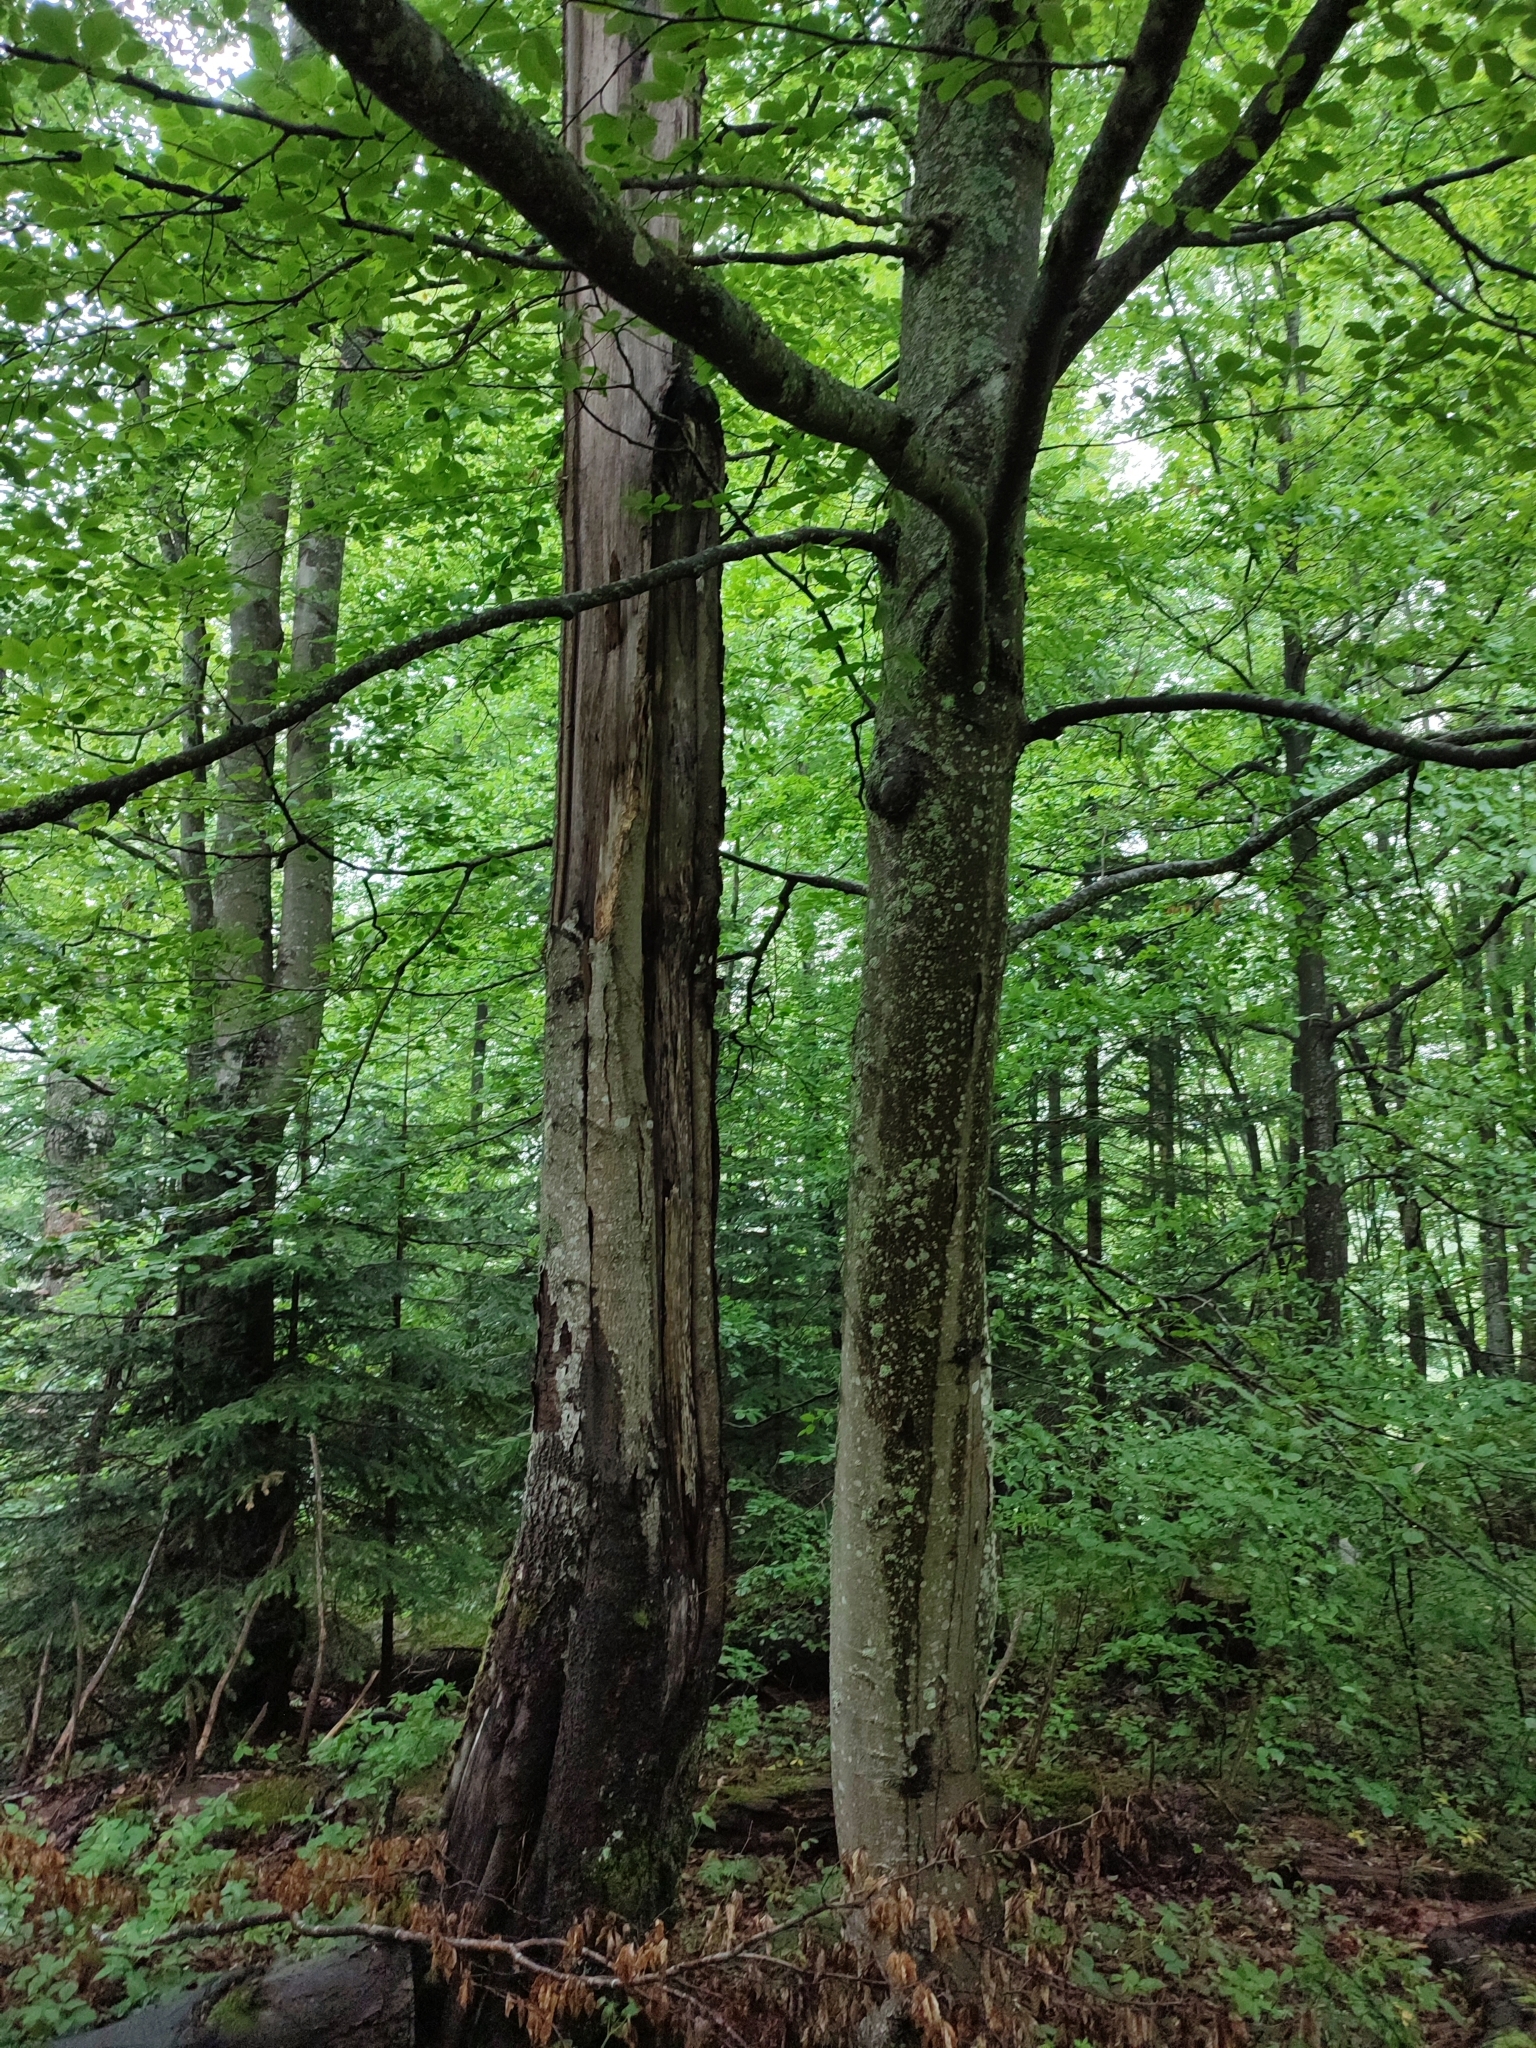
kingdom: Plantae
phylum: Tracheophyta
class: Magnoliopsida
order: Fagales
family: Fagaceae
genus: Fagus
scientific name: Fagus sylvatica
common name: Beech
